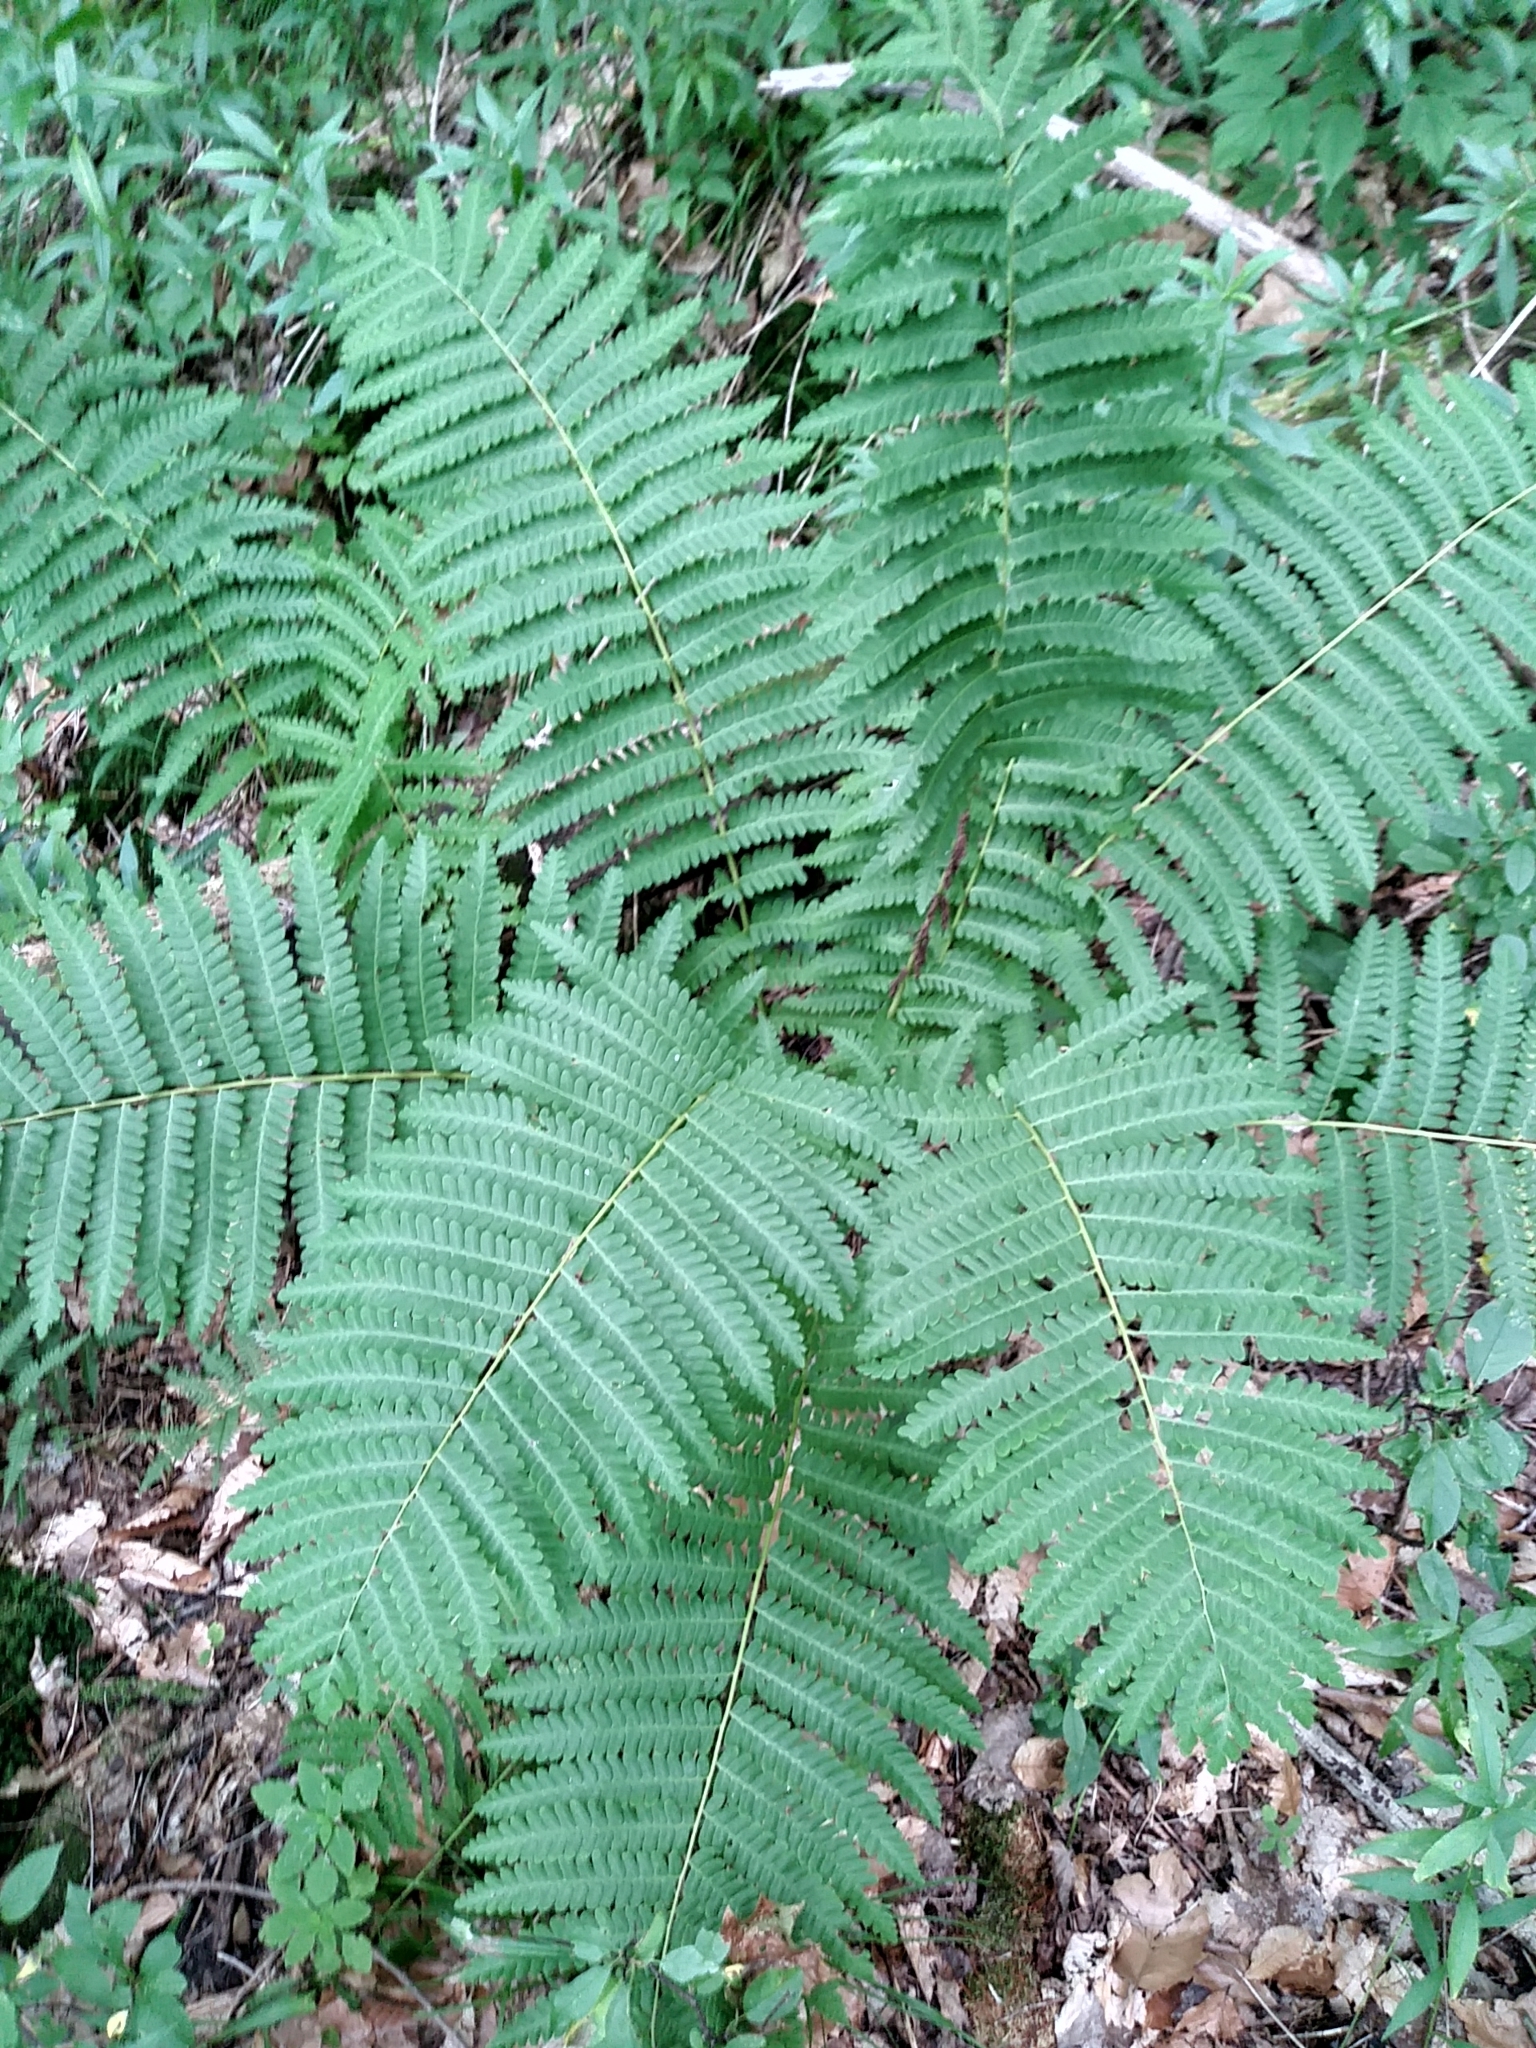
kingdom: Plantae
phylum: Tracheophyta
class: Polypodiopsida
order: Osmundales
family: Osmundaceae
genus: Claytosmunda
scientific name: Claytosmunda claytoniana
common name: Clayton's fern
